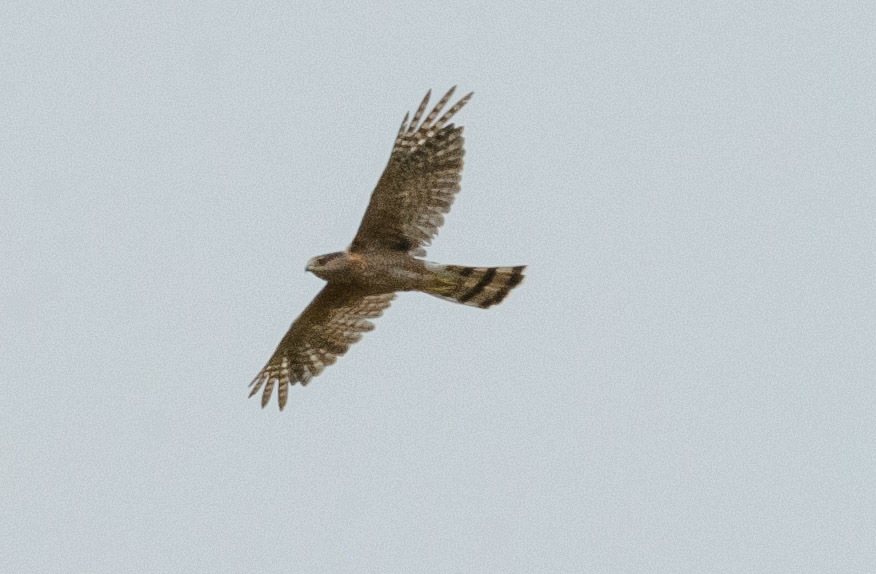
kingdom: Animalia
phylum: Chordata
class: Aves
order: Accipitriformes
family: Accipitridae
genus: Accipiter
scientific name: Accipiter cooperii
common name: Cooper's hawk
